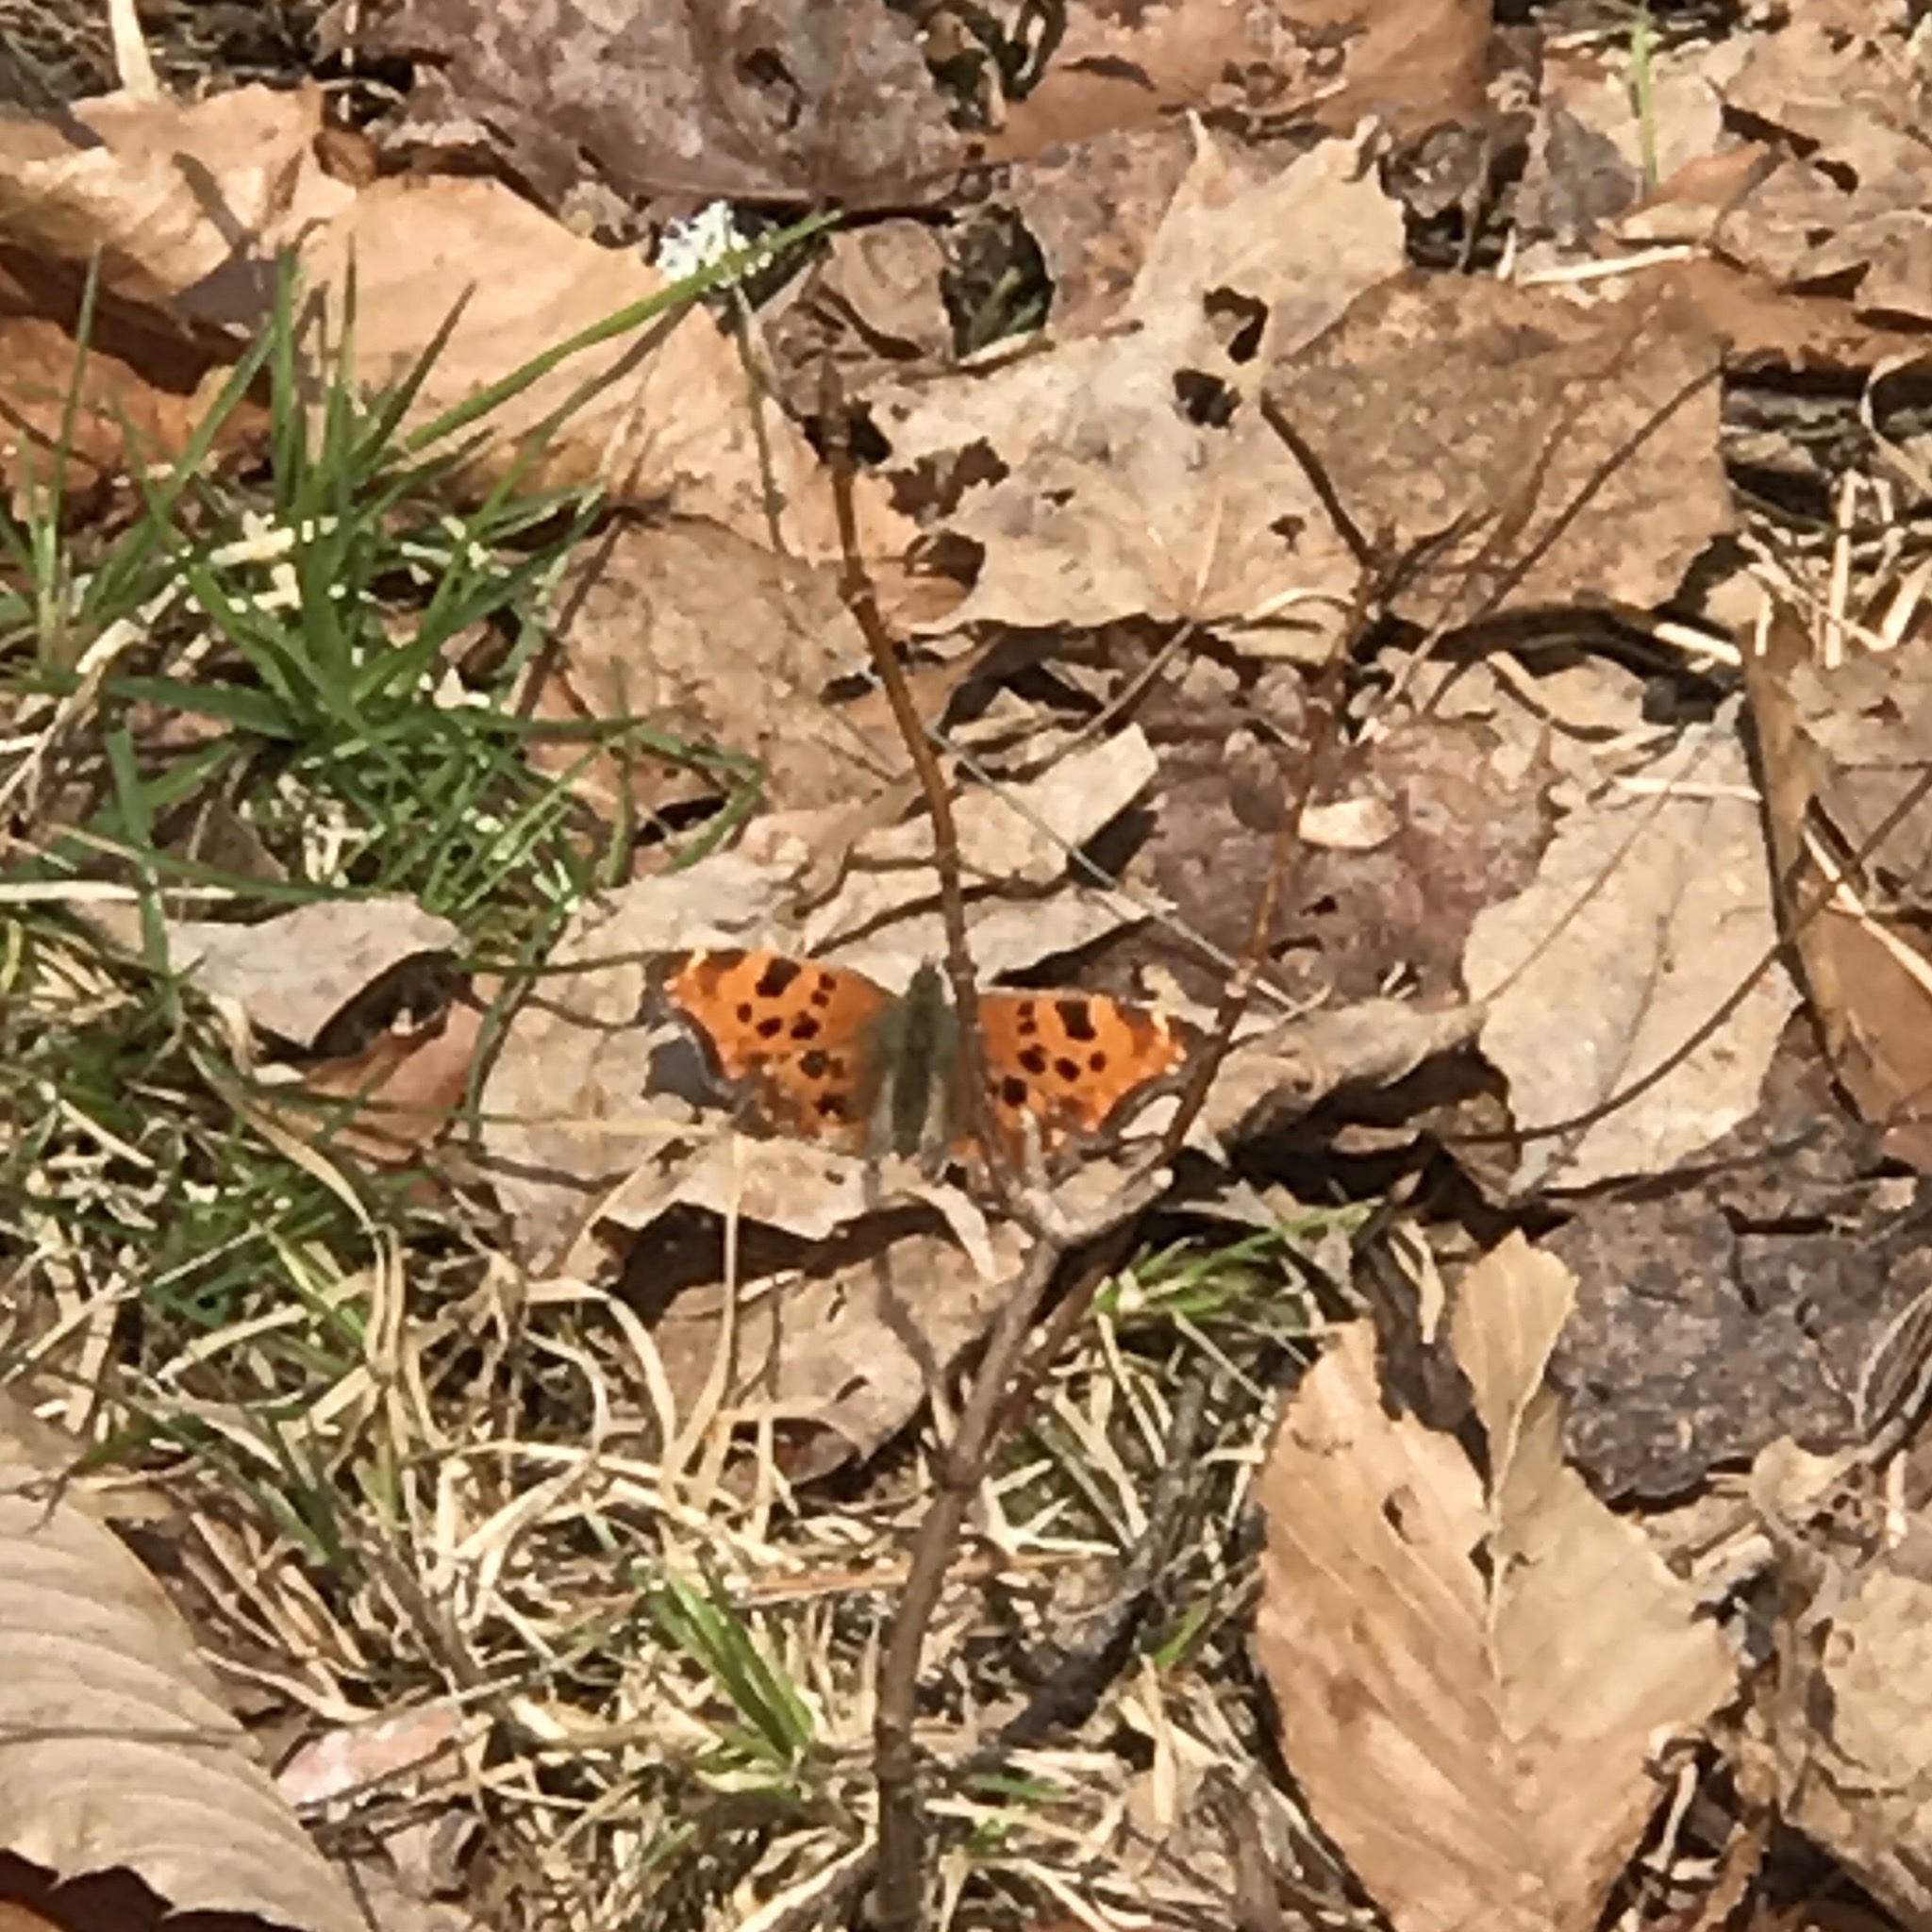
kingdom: Animalia
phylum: Arthropoda
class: Insecta
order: Lepidoptera
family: Nymphalidae
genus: Polygonia
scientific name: Polygonia comma
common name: Eastern comma
